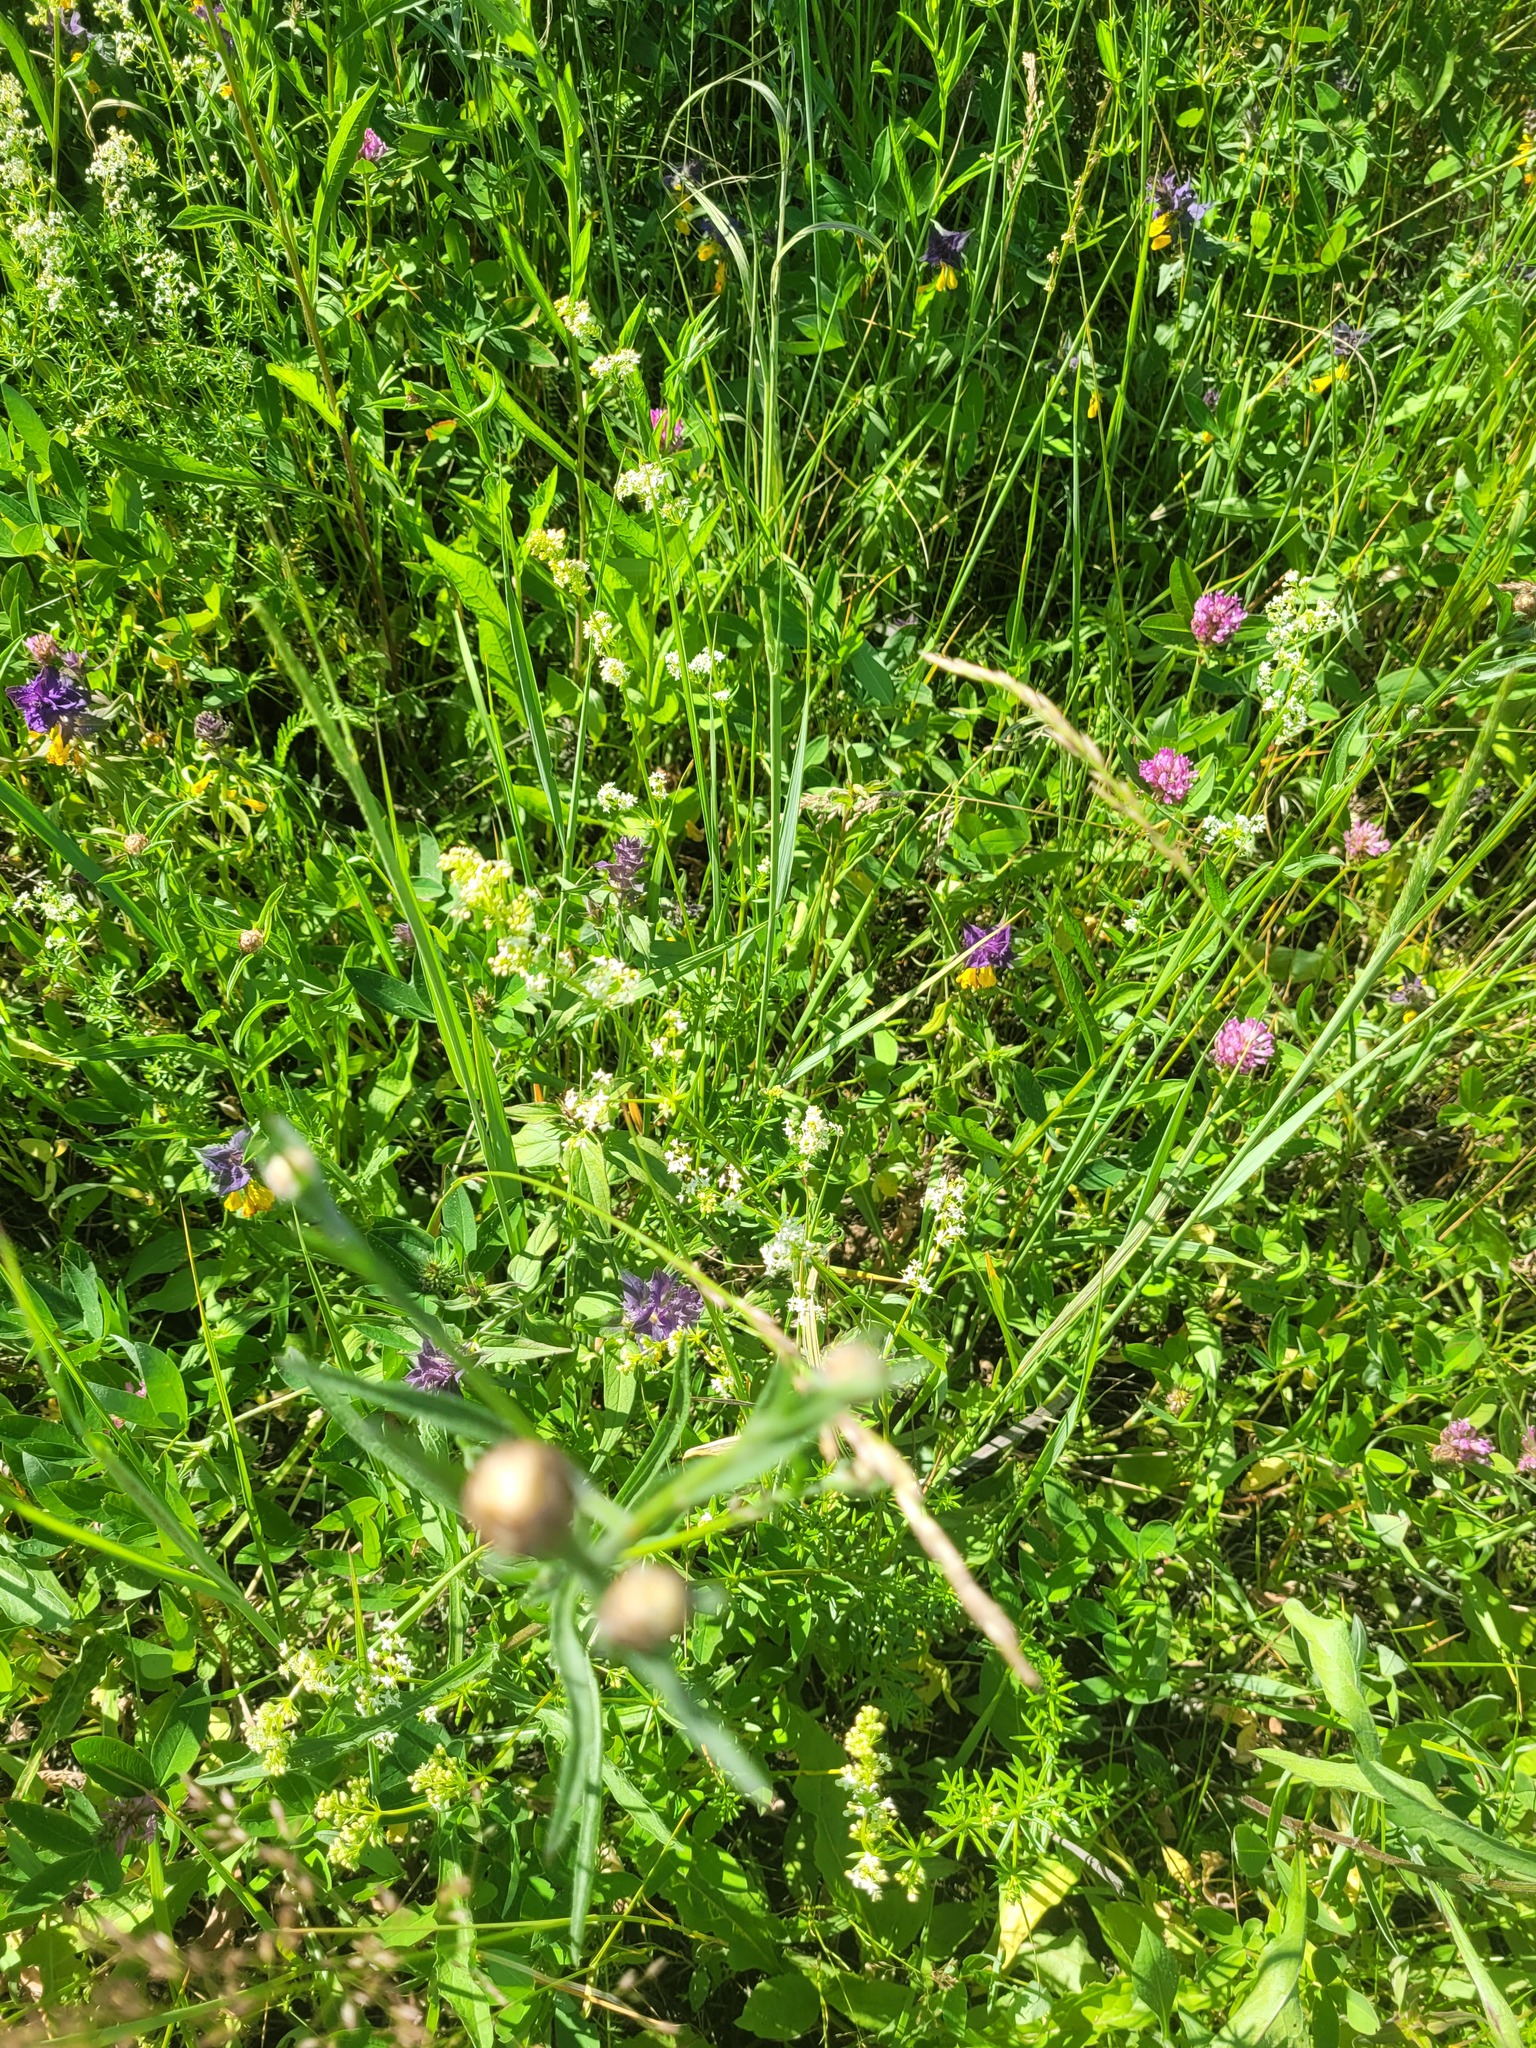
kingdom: Plantae
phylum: Tracheophyta
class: Magnoliopsida
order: Gentianales
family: Rubiaceae
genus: Galium
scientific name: Galium mollugo
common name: Hedge bedstraw
